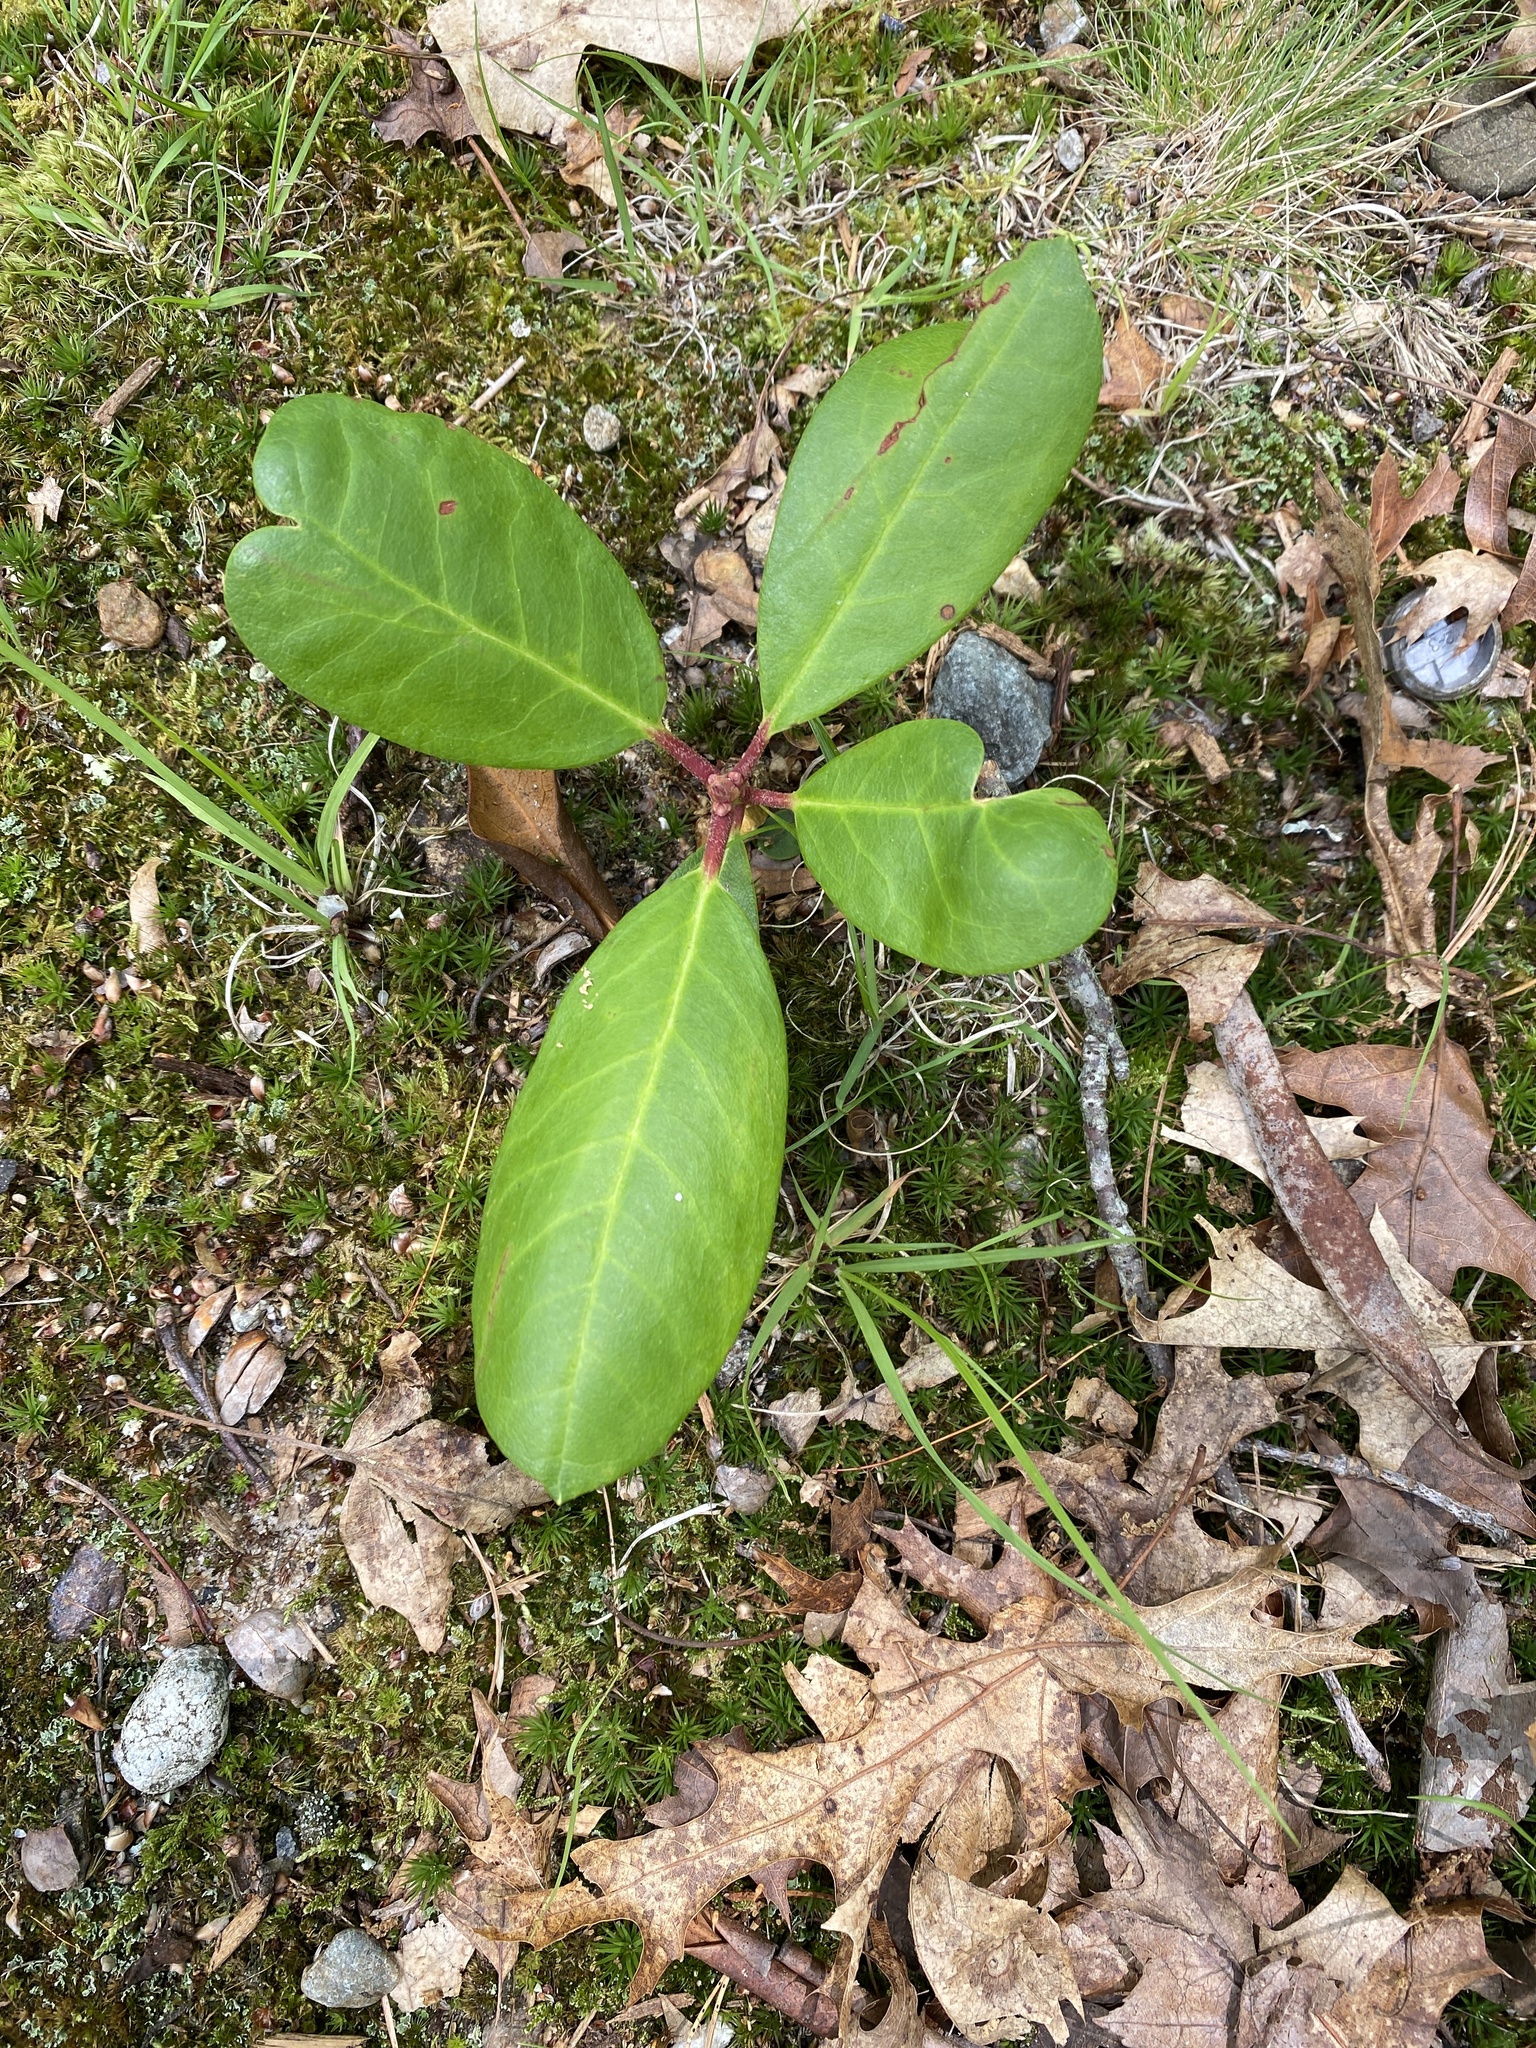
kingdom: Plantae
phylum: Tracheophyta
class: Magnoliopsida
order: Ericales
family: Ericaceae
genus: Gaultheria
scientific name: Gaultheria procumbens
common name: Checkerberry
